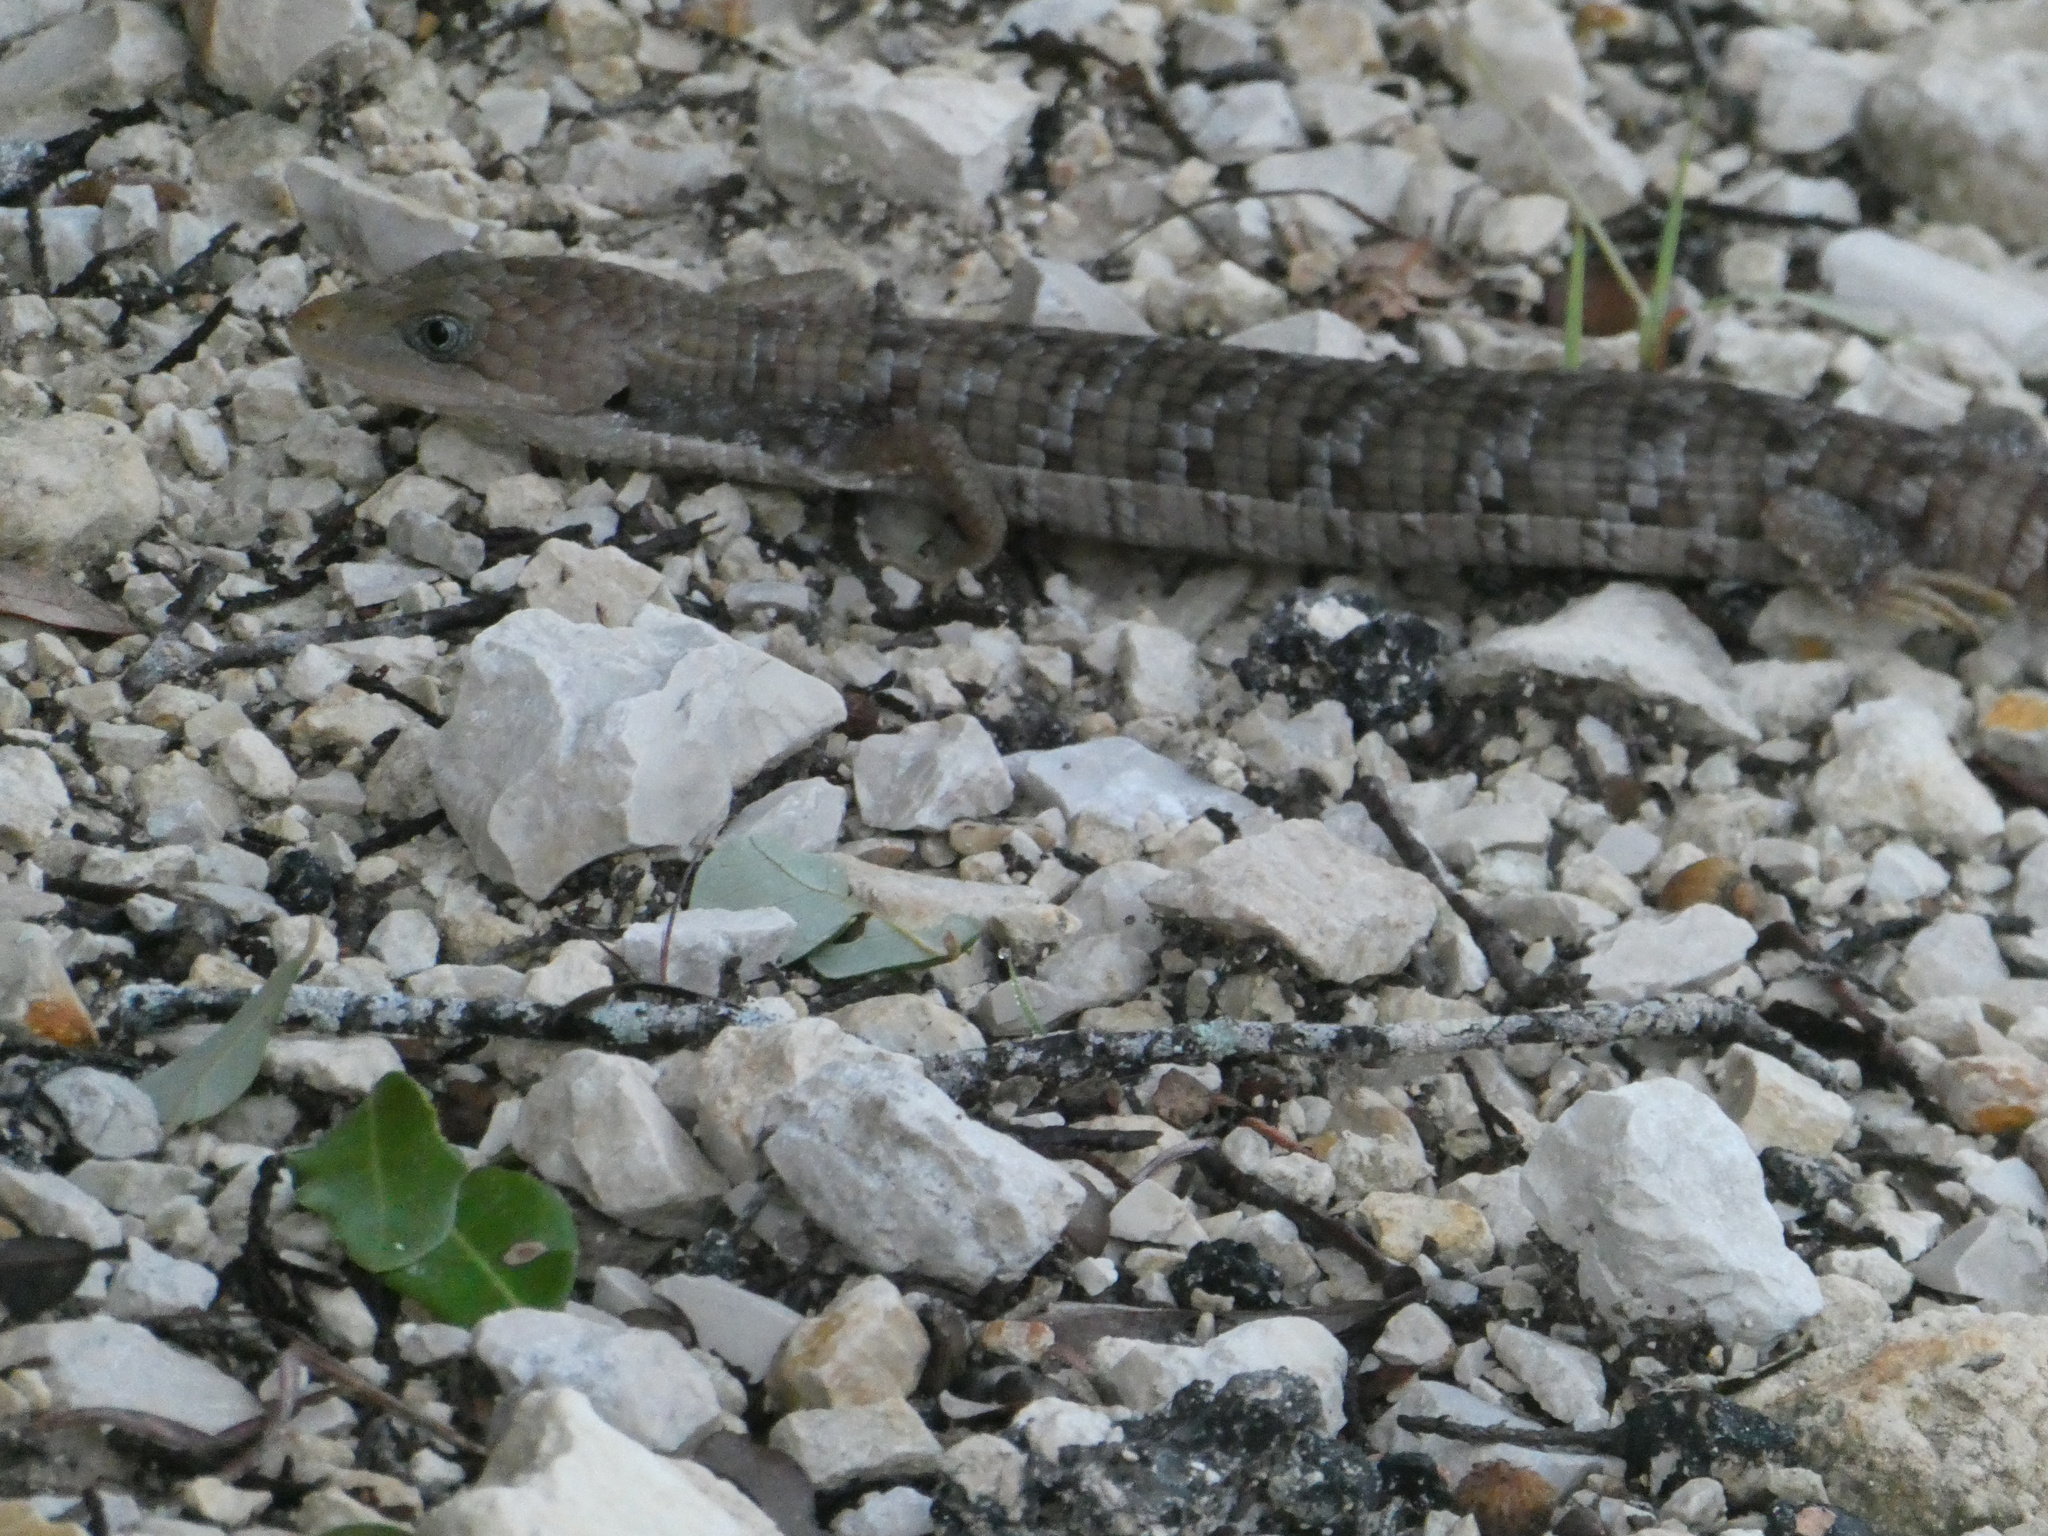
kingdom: Animalia
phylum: Chordata
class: Squamata
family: Anguidae
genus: Gerrhonotus
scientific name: Gerrhonotus infernalis
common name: Texas alligator lizard
